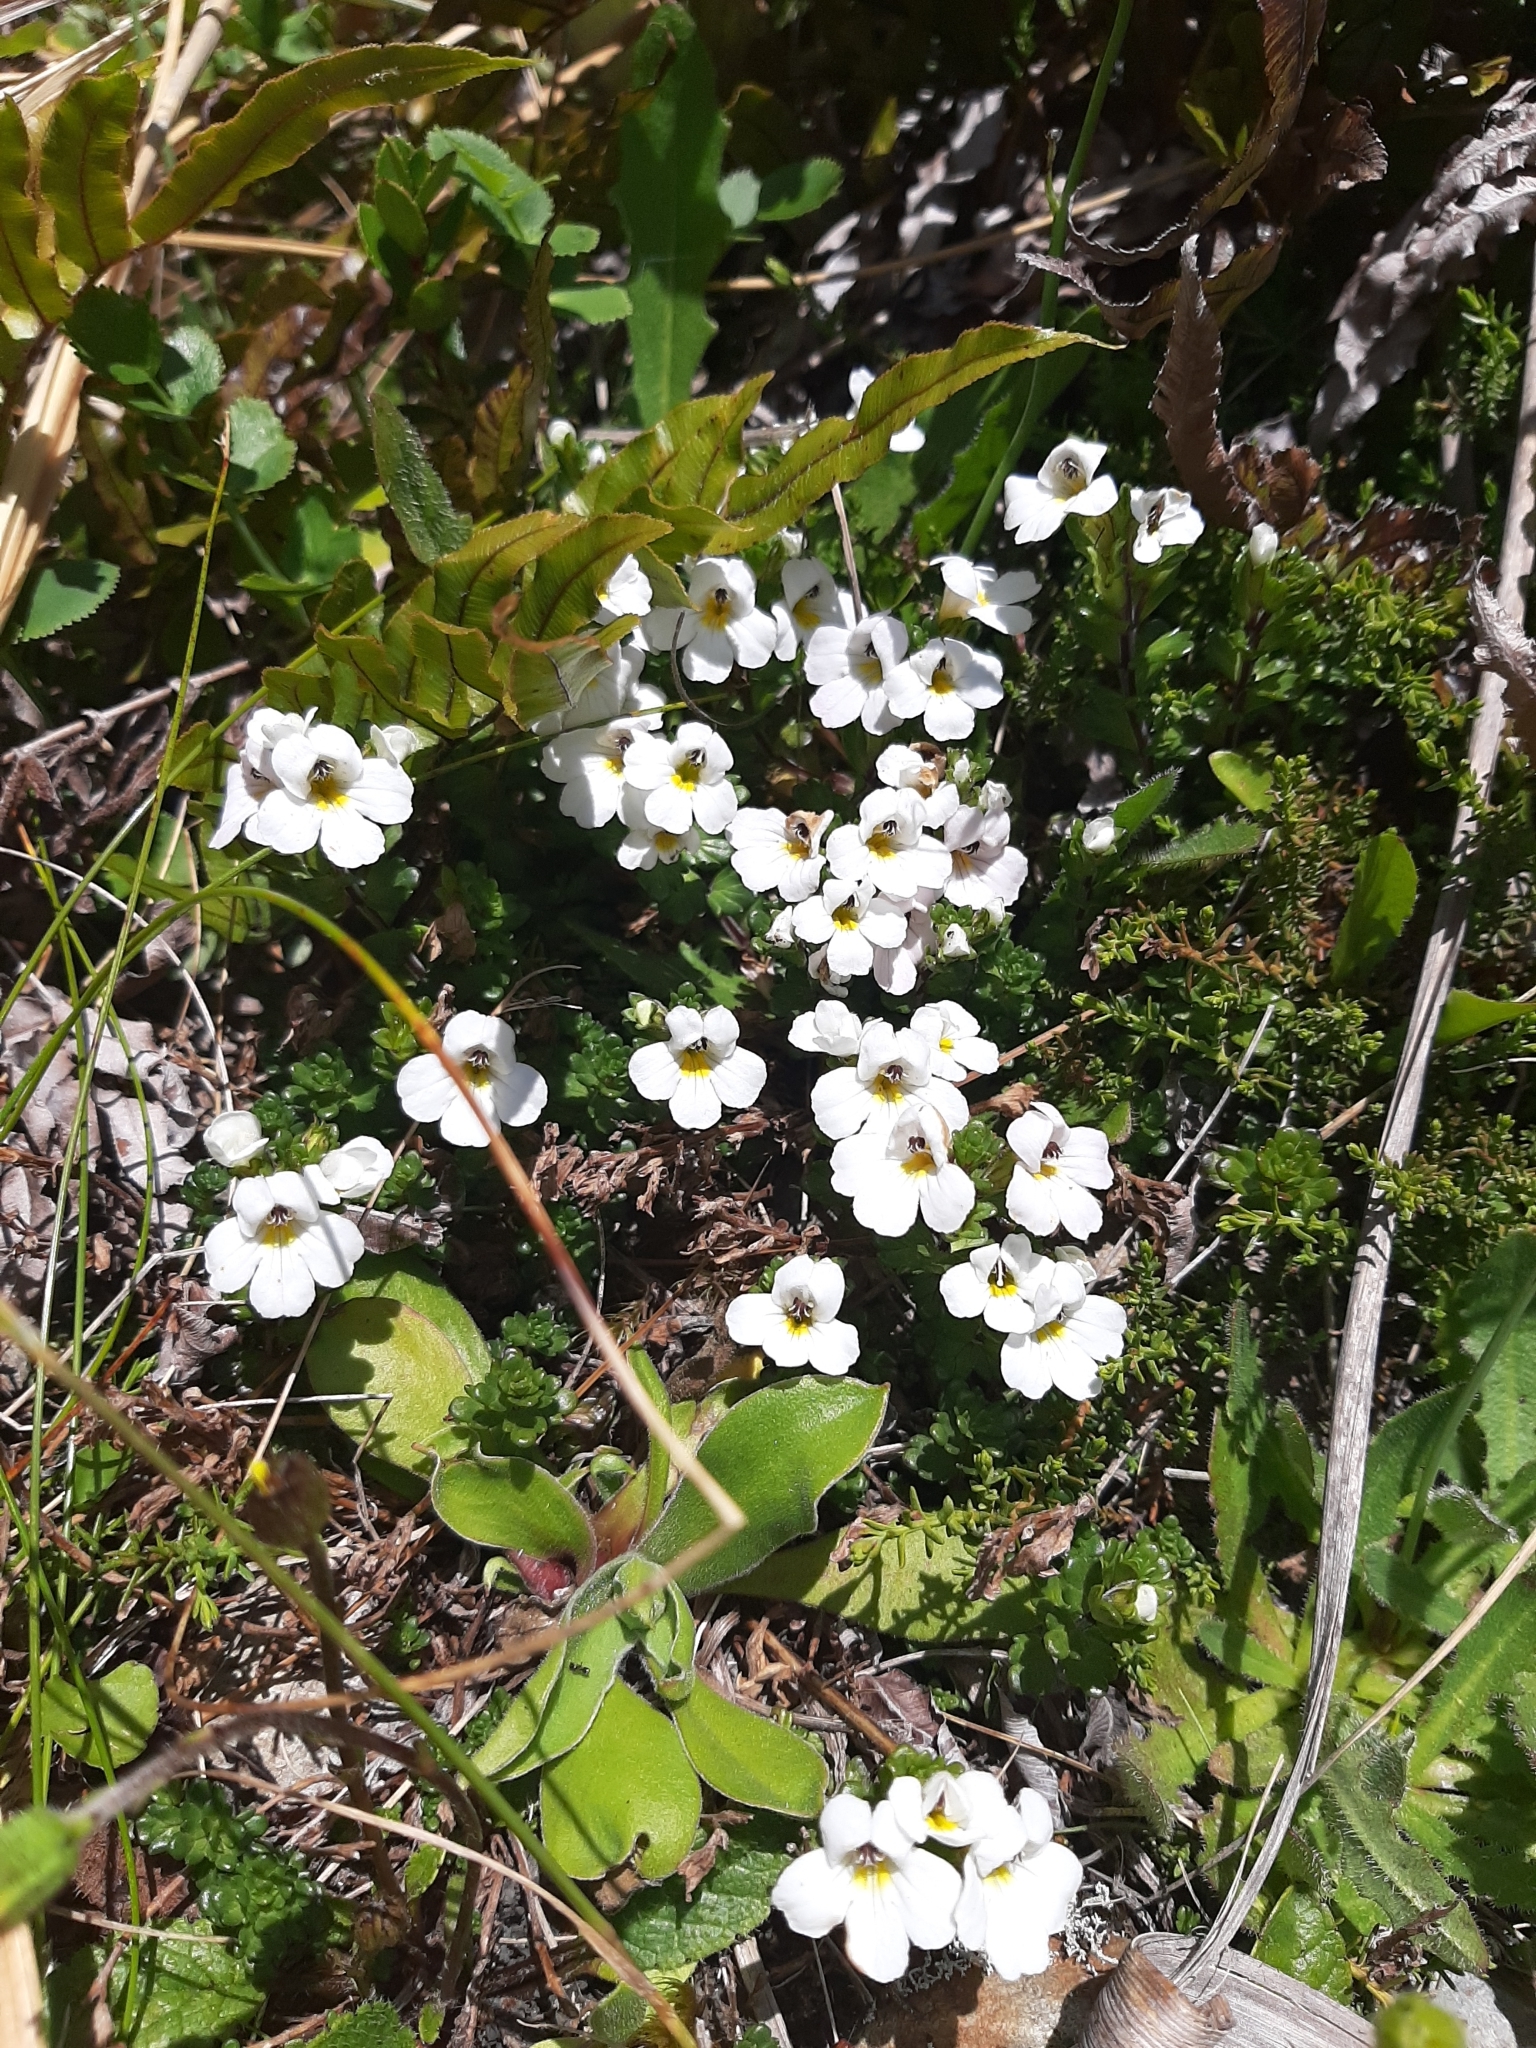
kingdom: Plantae
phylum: Tracheophyta
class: Magnoliopsida
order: Lamiales
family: Orobanchaceae
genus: Euphrasia
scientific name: Euphrasia petriei
